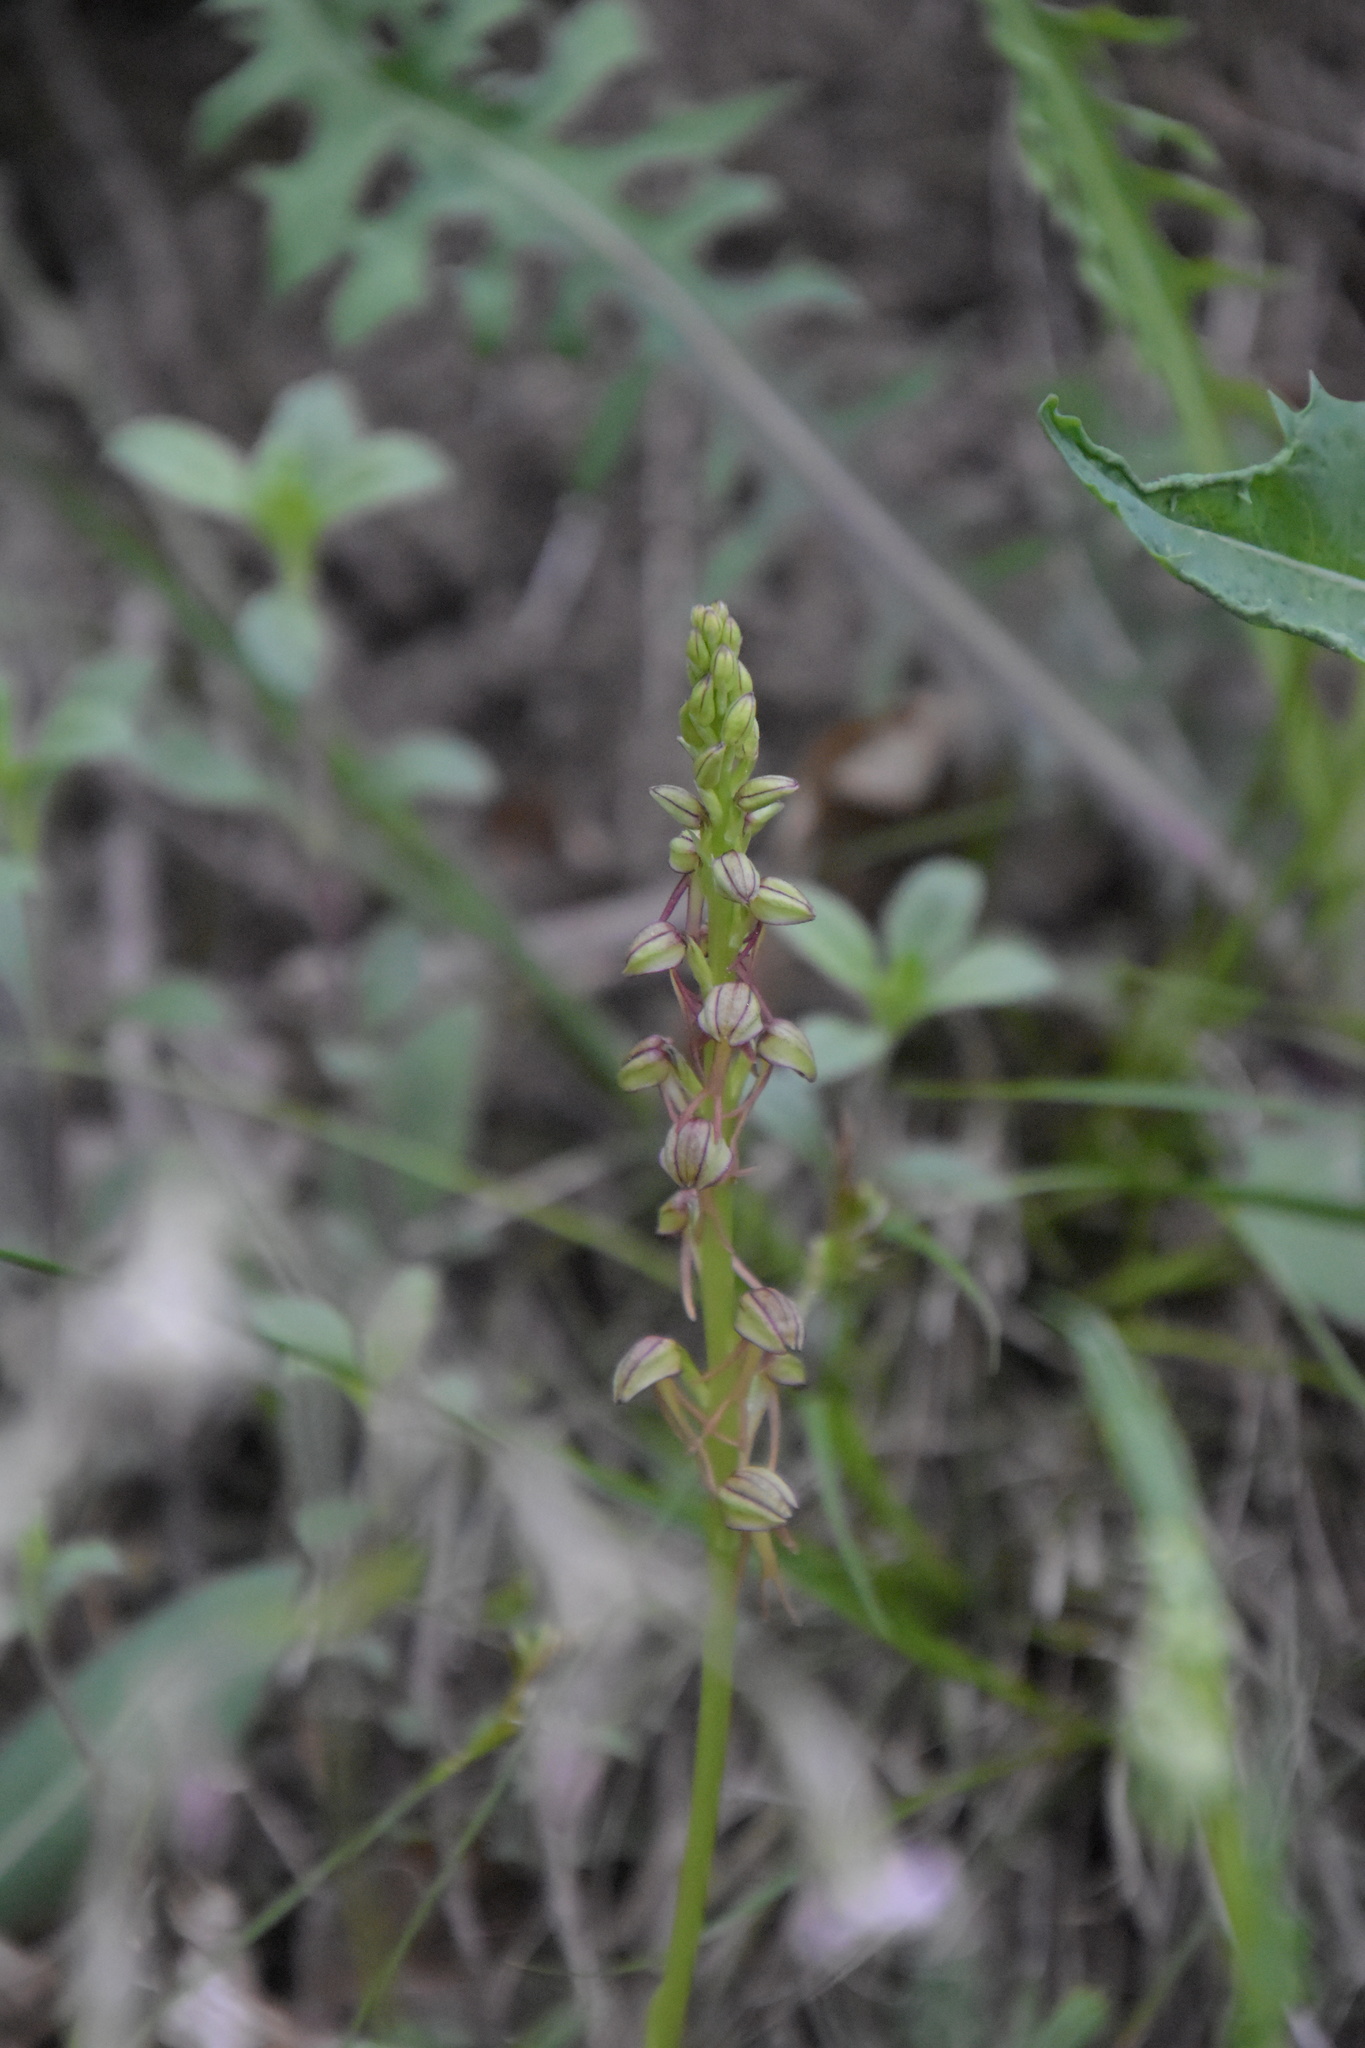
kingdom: Plantae
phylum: Tracheophyta
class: Liliopsida
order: Asparagales
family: Orchidaceae
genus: Orchis
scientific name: Orchis anthropophora
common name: Man orchid
